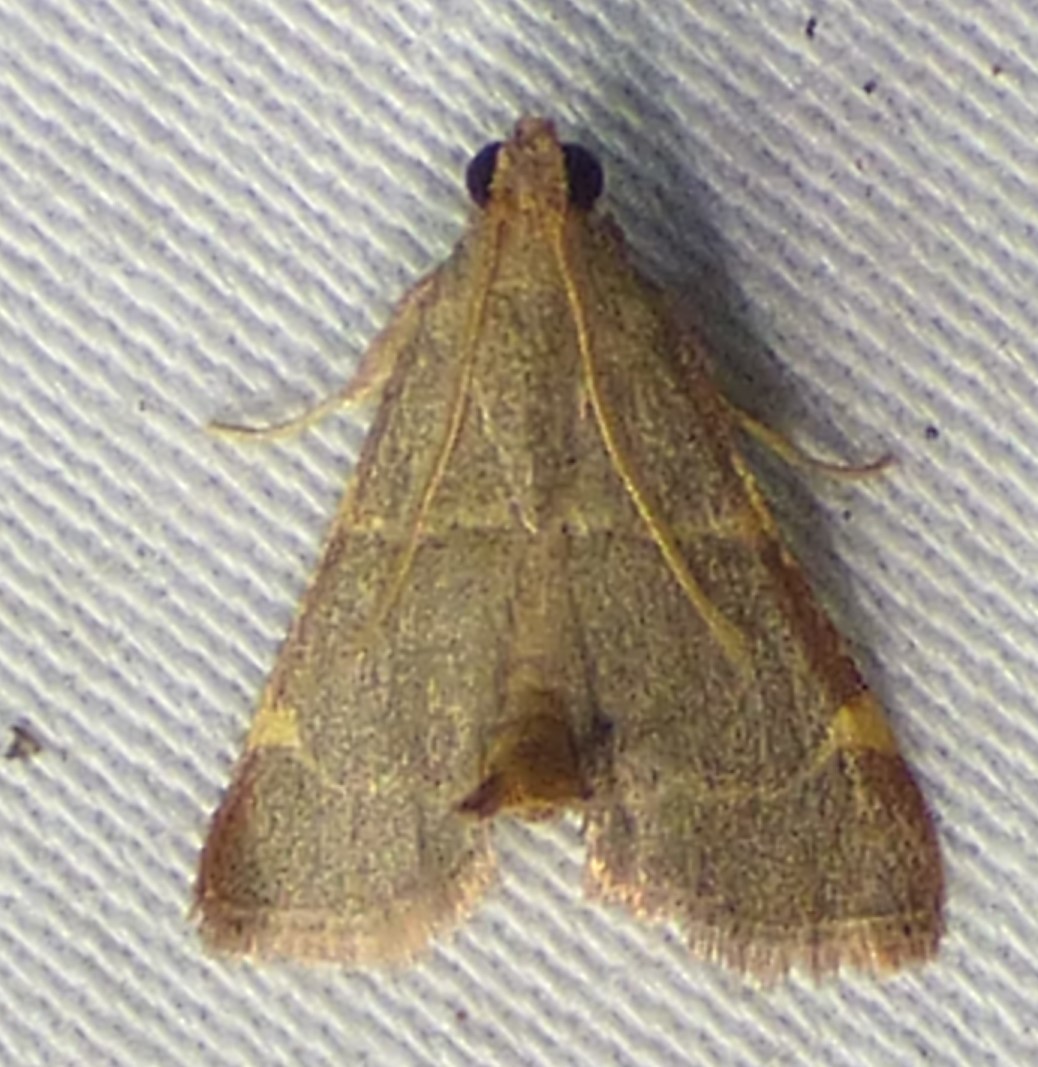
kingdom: Animalia
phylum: Arthropoda
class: Insecta
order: Lepidoptera
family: Pyralidae
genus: Hypsopygia
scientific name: Hypsopygia binodulalis
